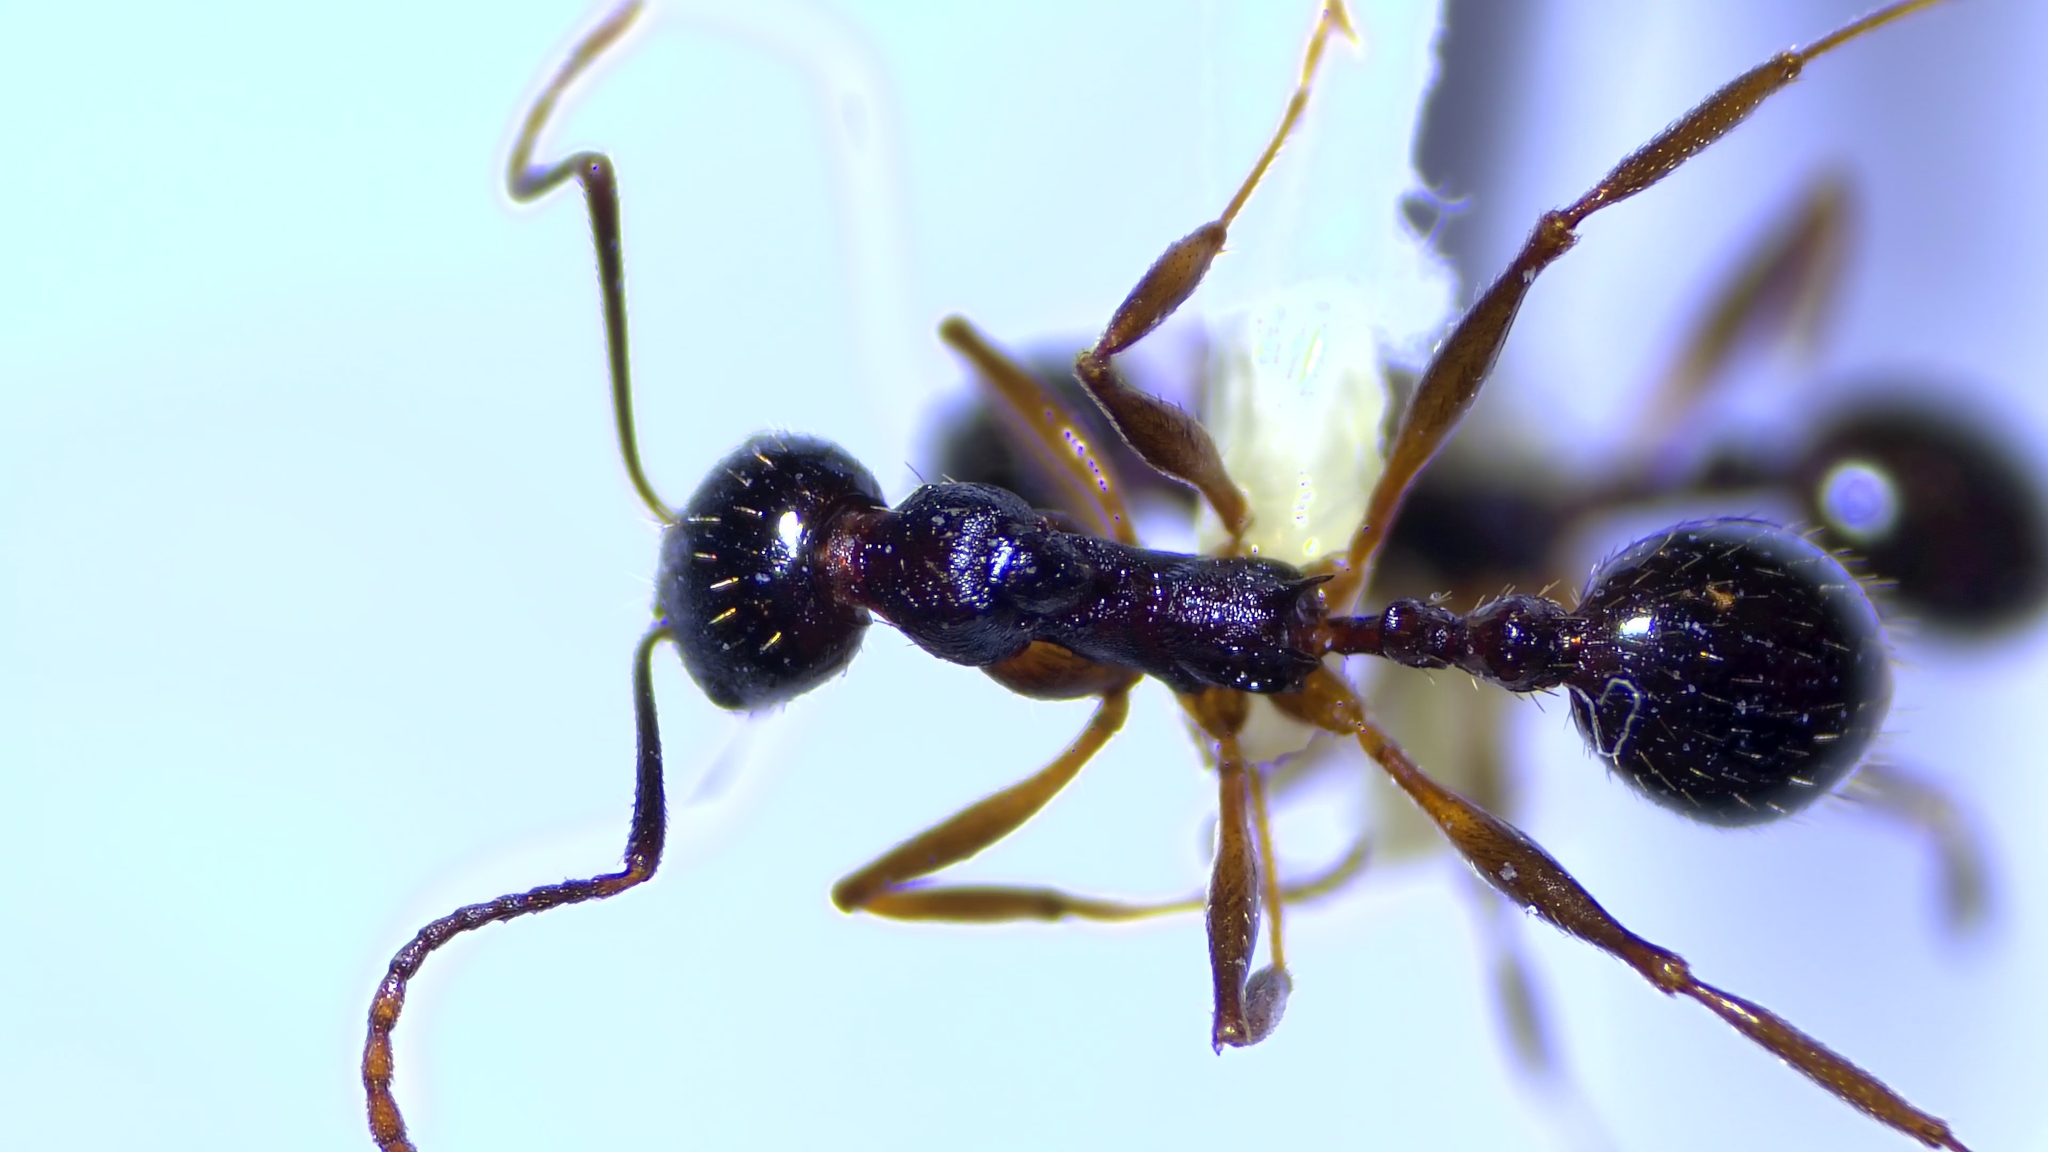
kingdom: Animalia
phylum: Arthropoda
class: Insecta
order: Hymenoptera
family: Formicidae
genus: Aphaenogaster
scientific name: Aphaenogaster picea
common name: Pitch-black collared ant
